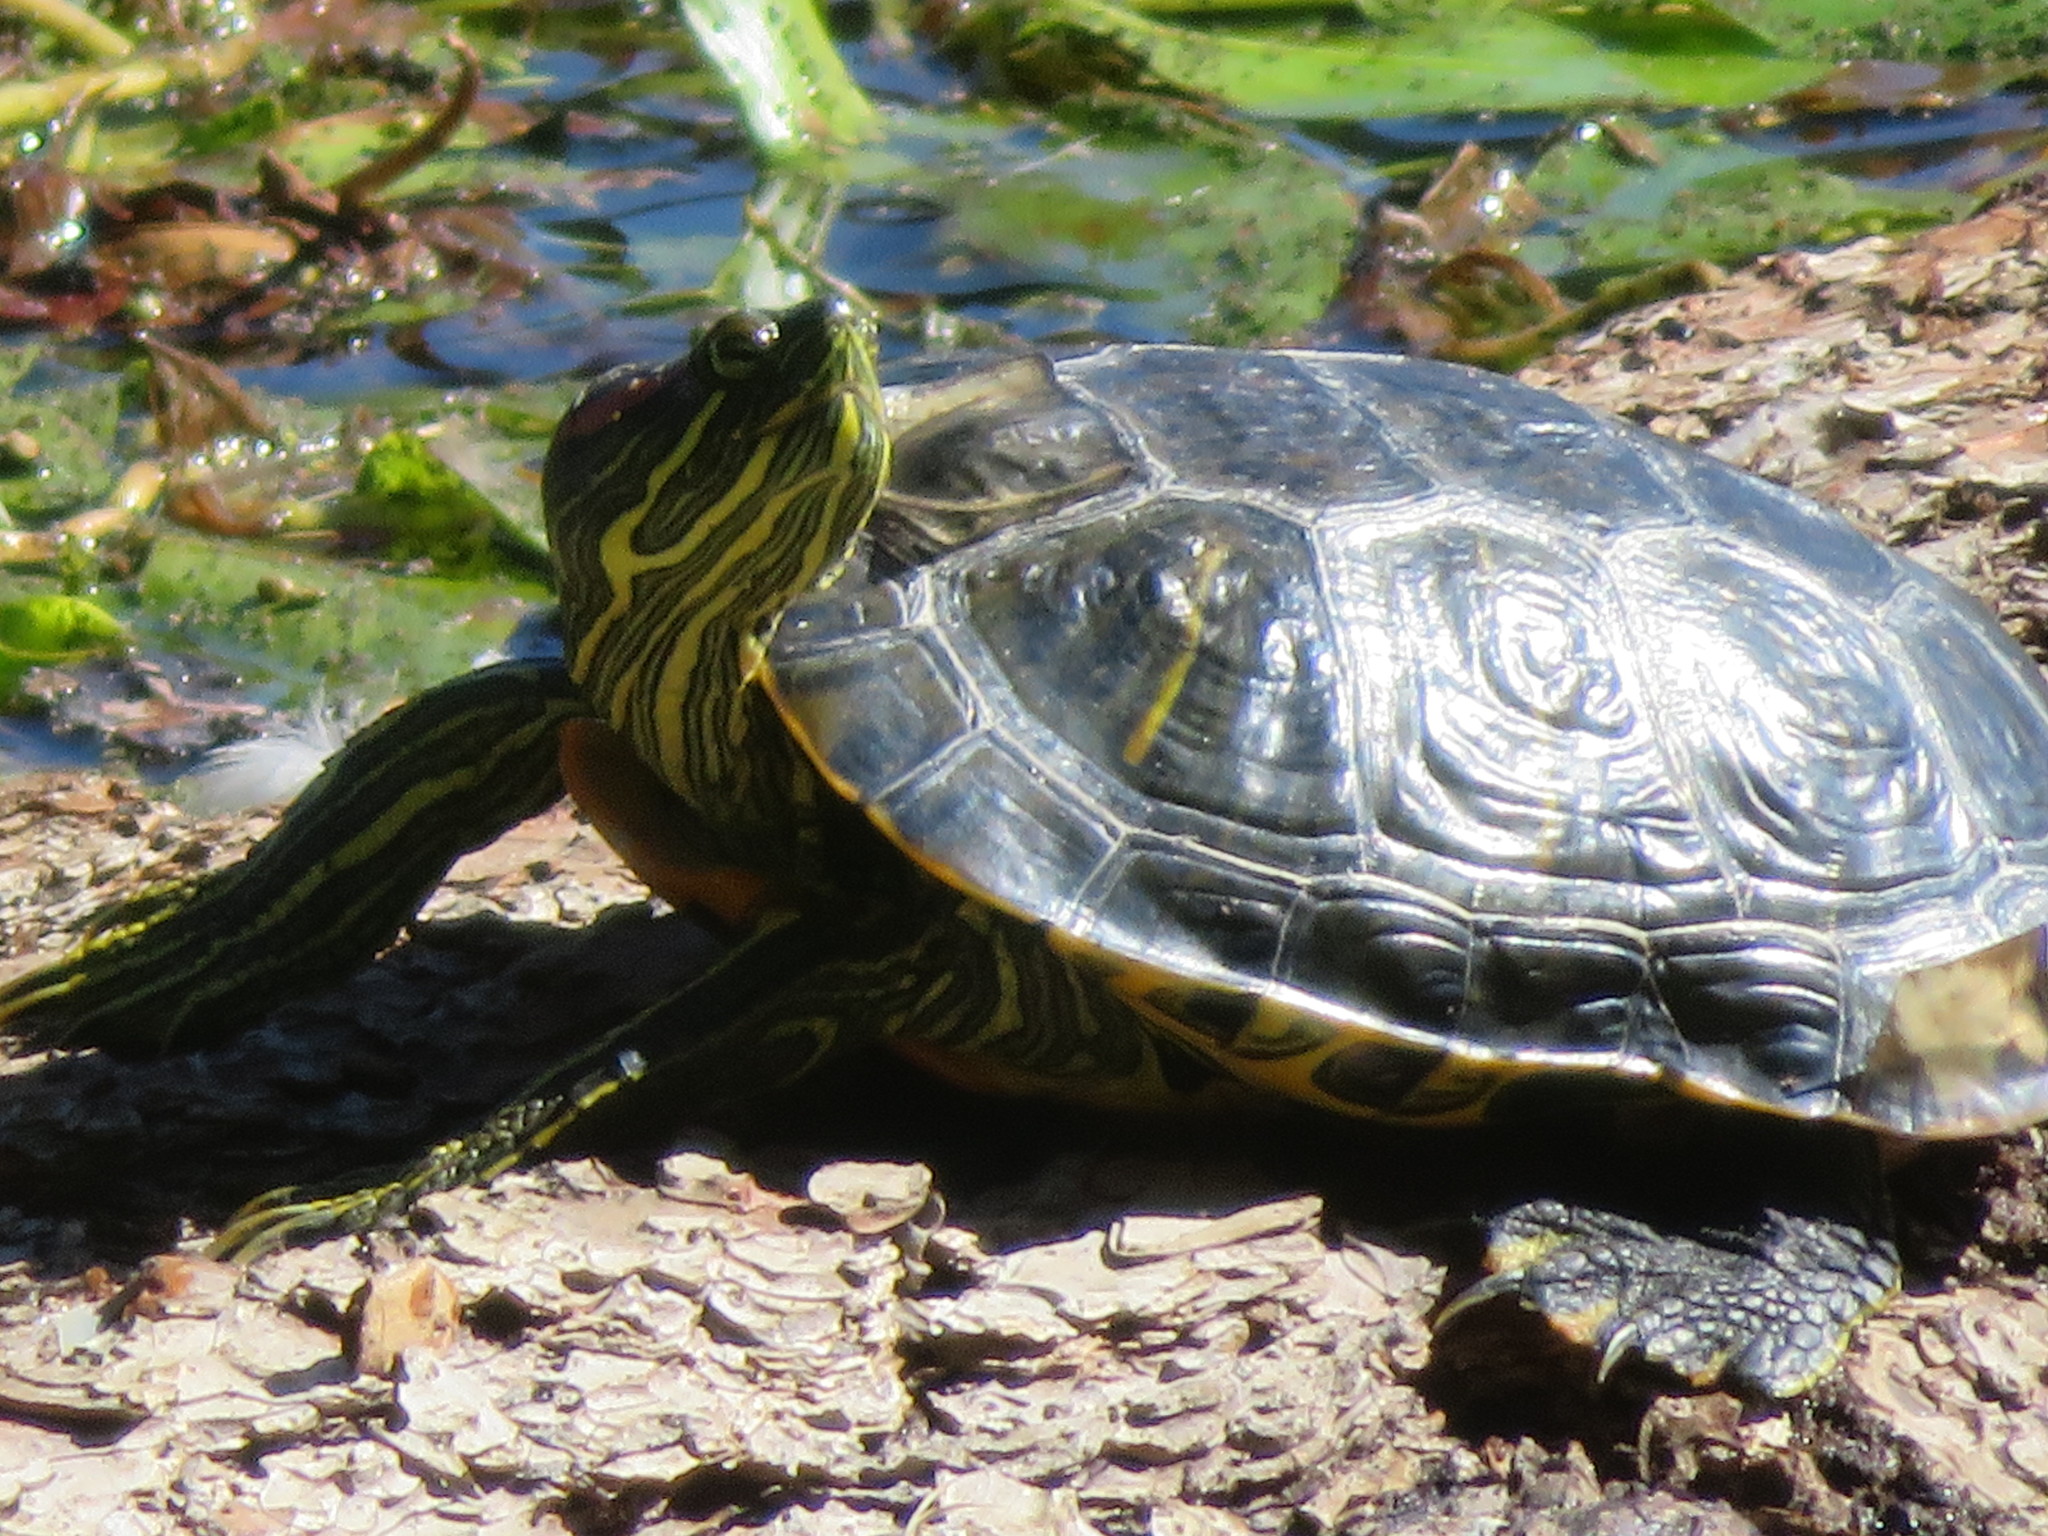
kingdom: Animalia
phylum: Chordata
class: Testudines
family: Emydidae
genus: Trachemys
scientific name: Trachemys scripta
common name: Slider
